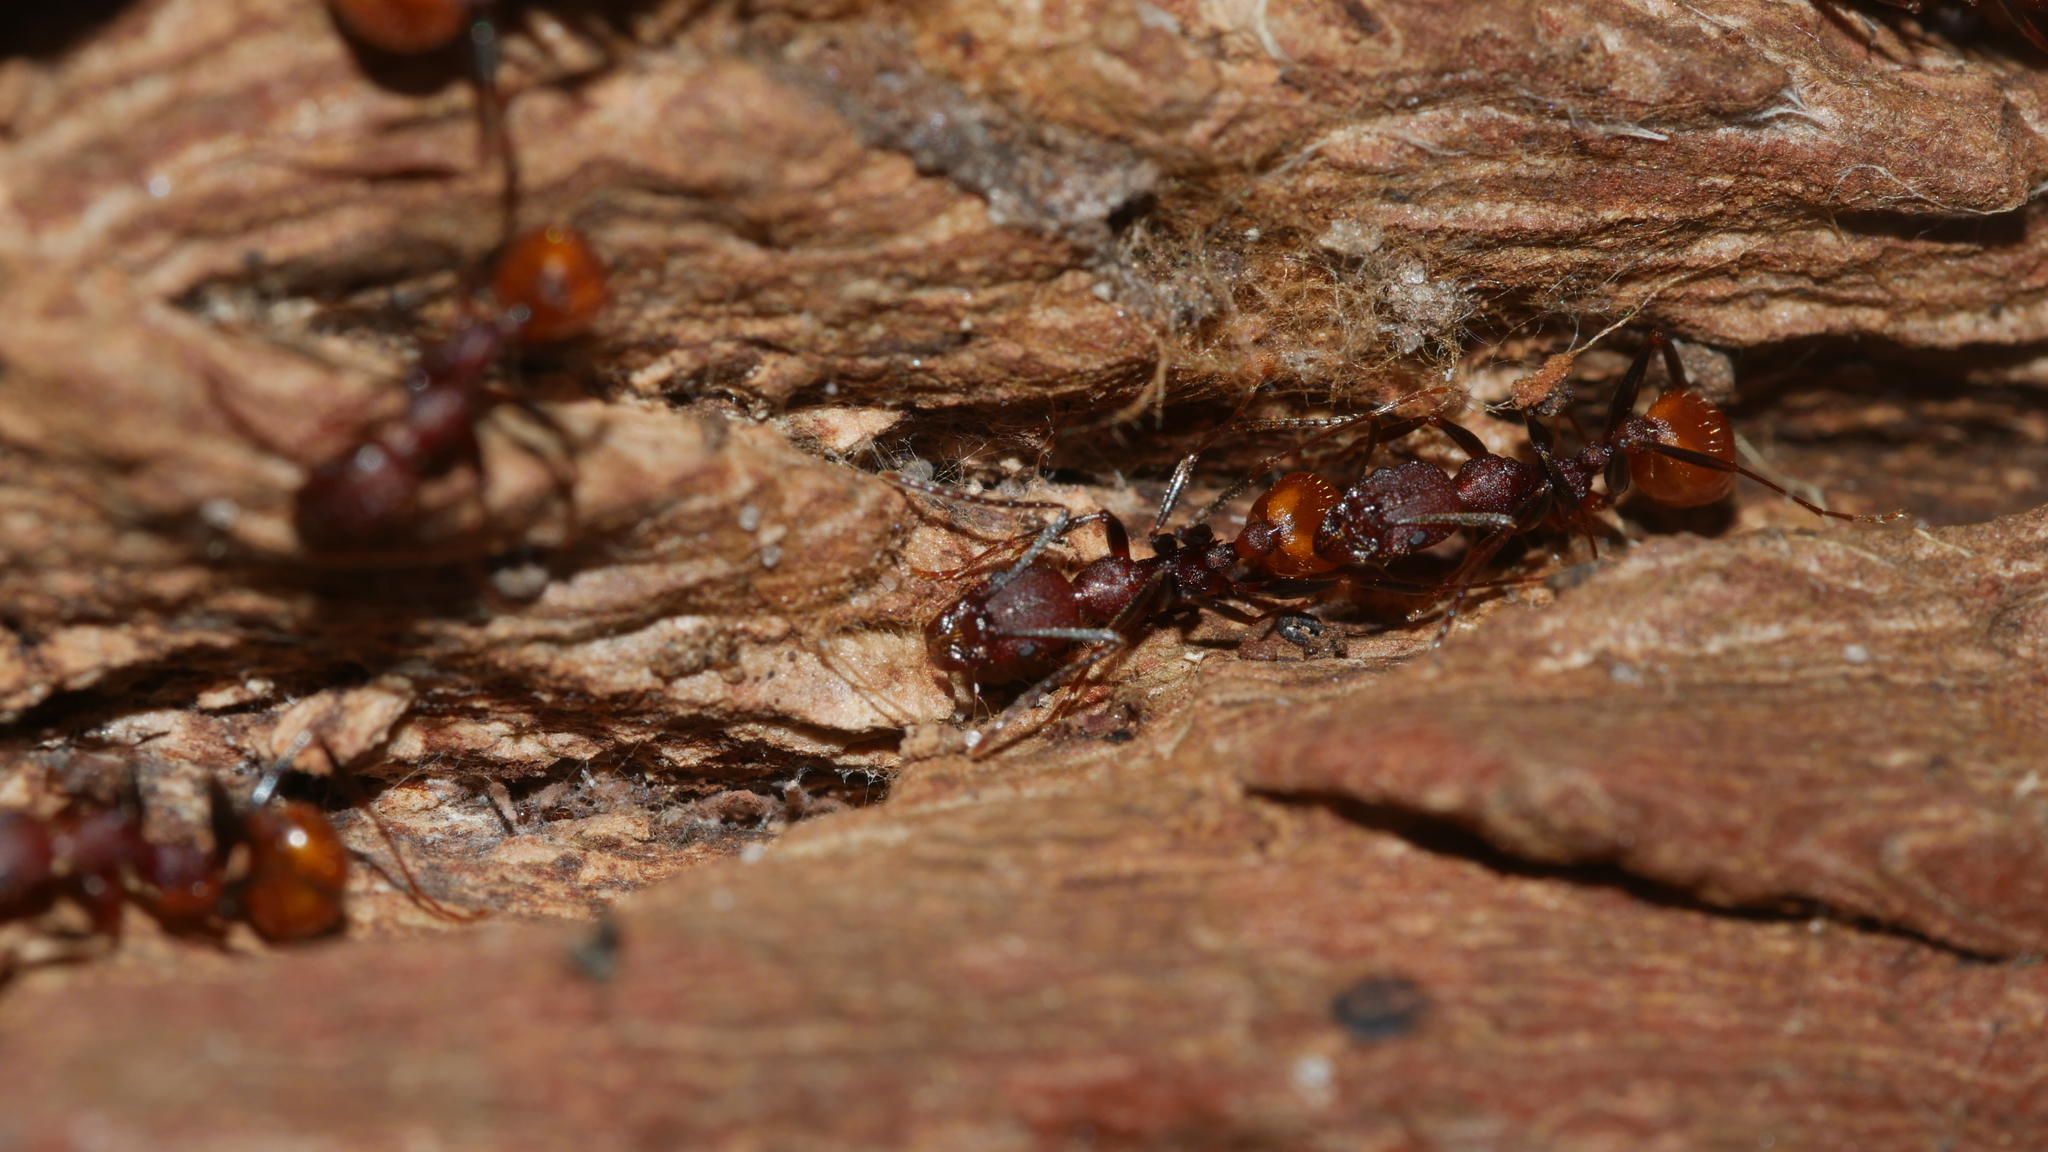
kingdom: Animalia
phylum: Arthropoda
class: Insecta
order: Hymenoptera
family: Formicidae
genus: Aphaenogaster
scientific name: Aphaenogaster lamellidens
